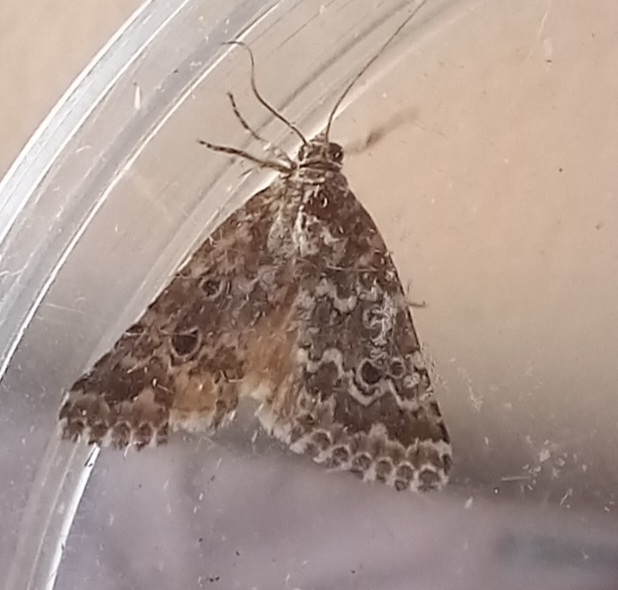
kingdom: Animalia
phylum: Arthropoda
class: Insecta
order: Lepidoptera
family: Noctuidae
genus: Alvaradoia
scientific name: Alvaradoia disjecta
